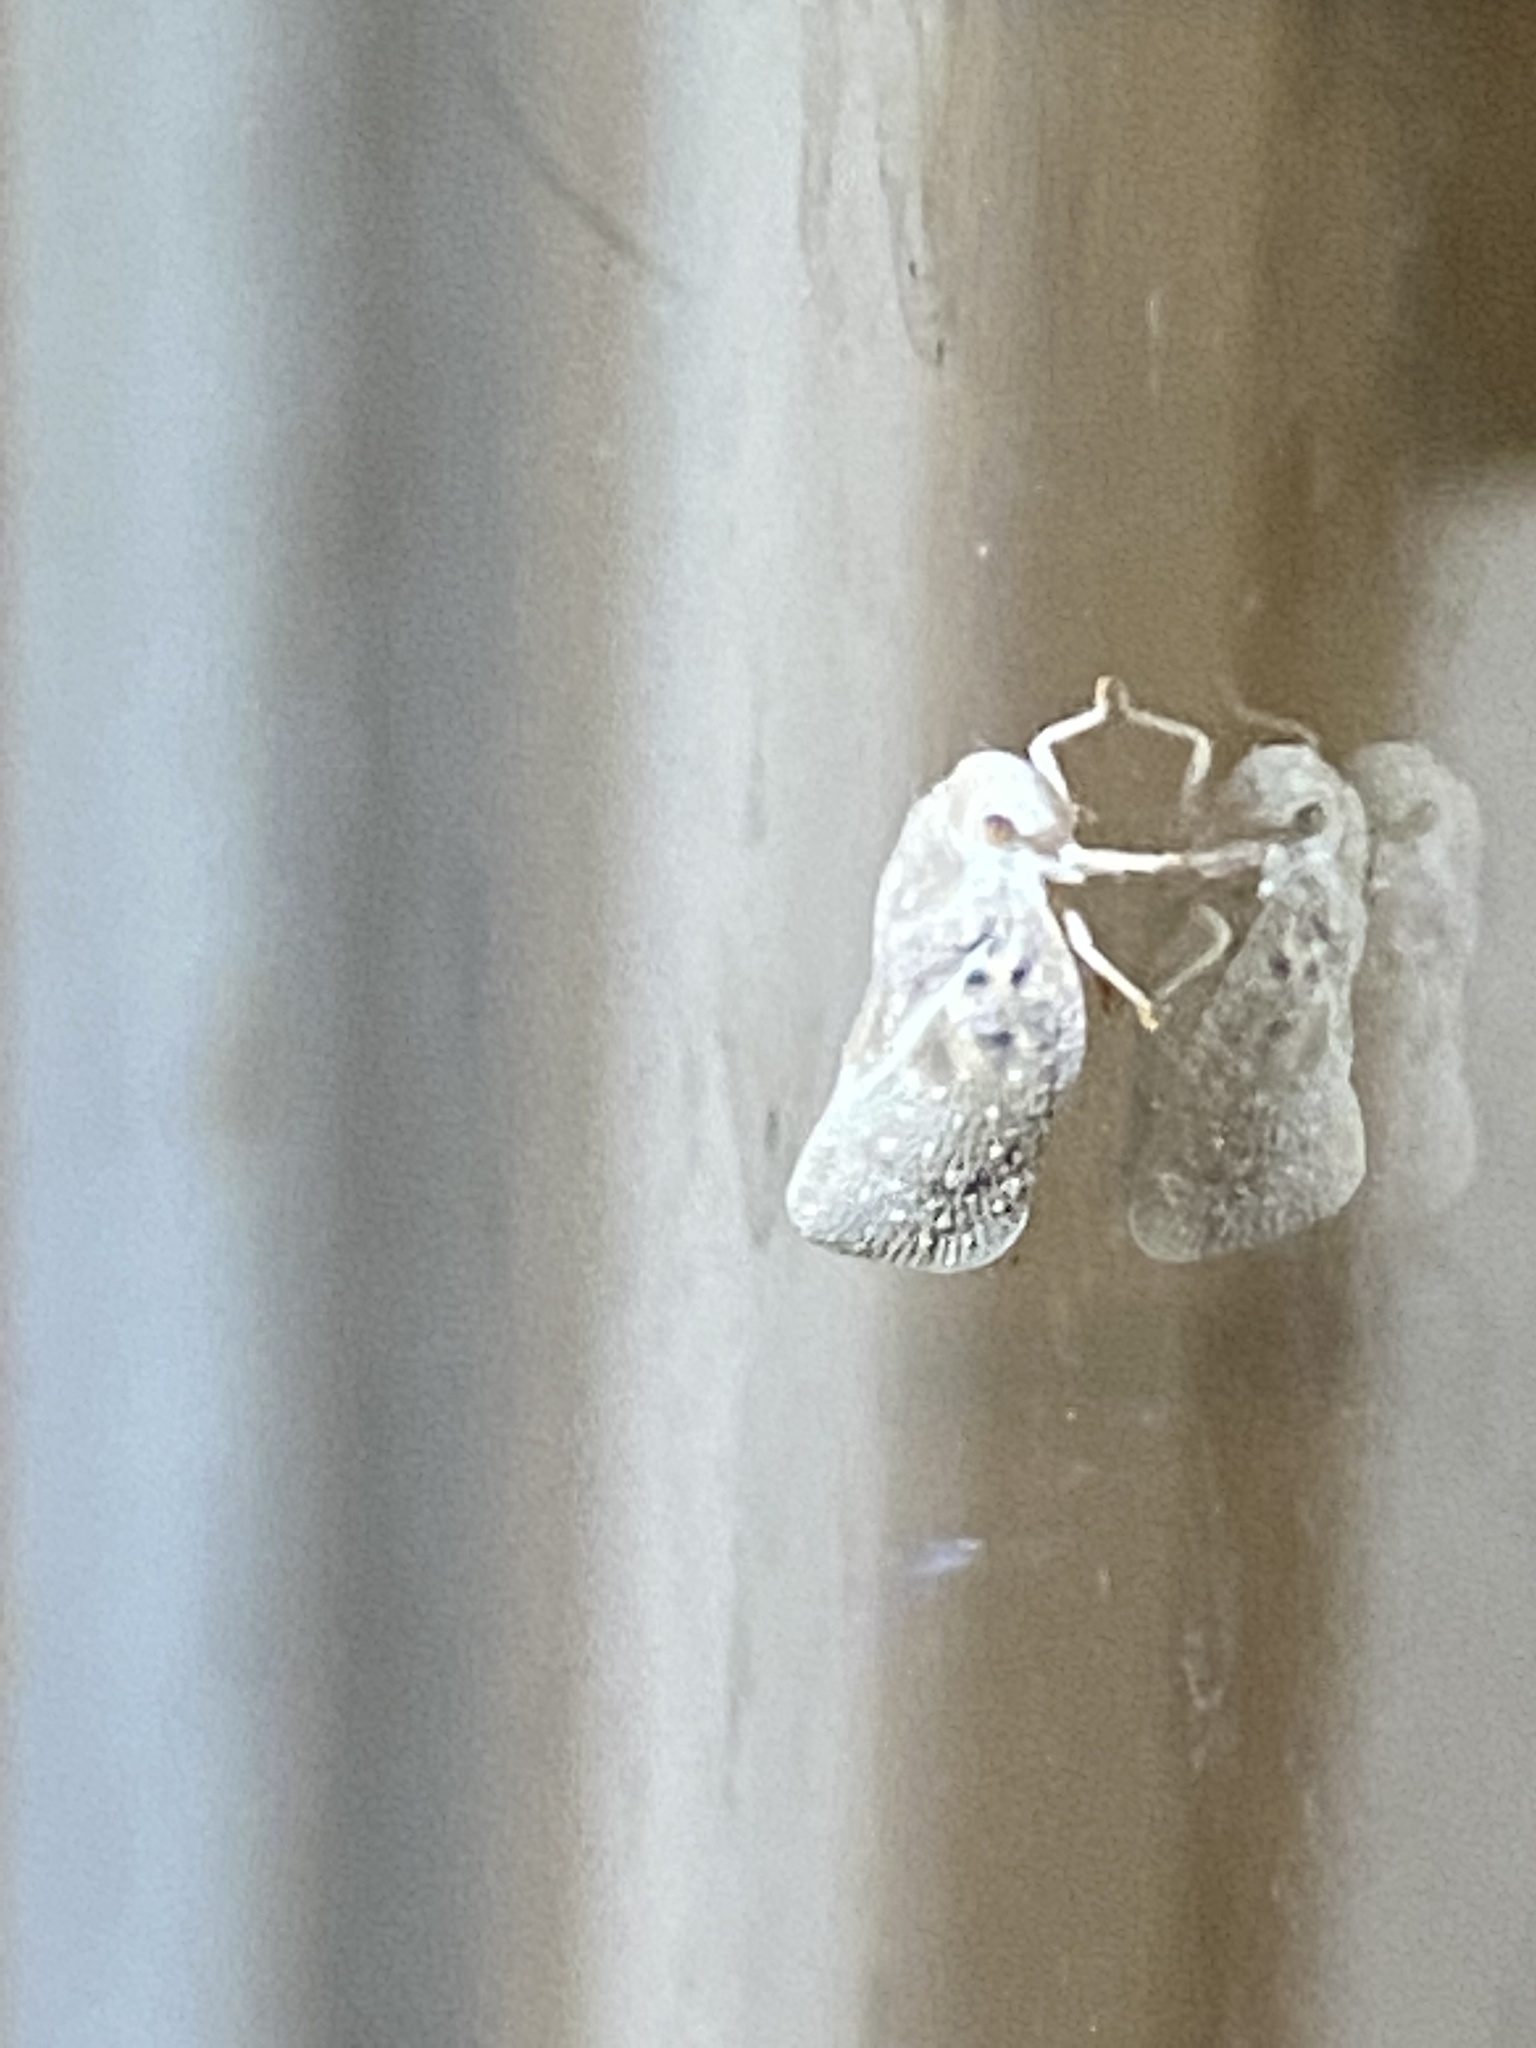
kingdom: Animalia
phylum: Arthropoda
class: Insecta
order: Hemiptera
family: Flatidae
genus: Metcalfa
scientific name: Metcalfa pruinosa
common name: Citrus flatid planthopper
